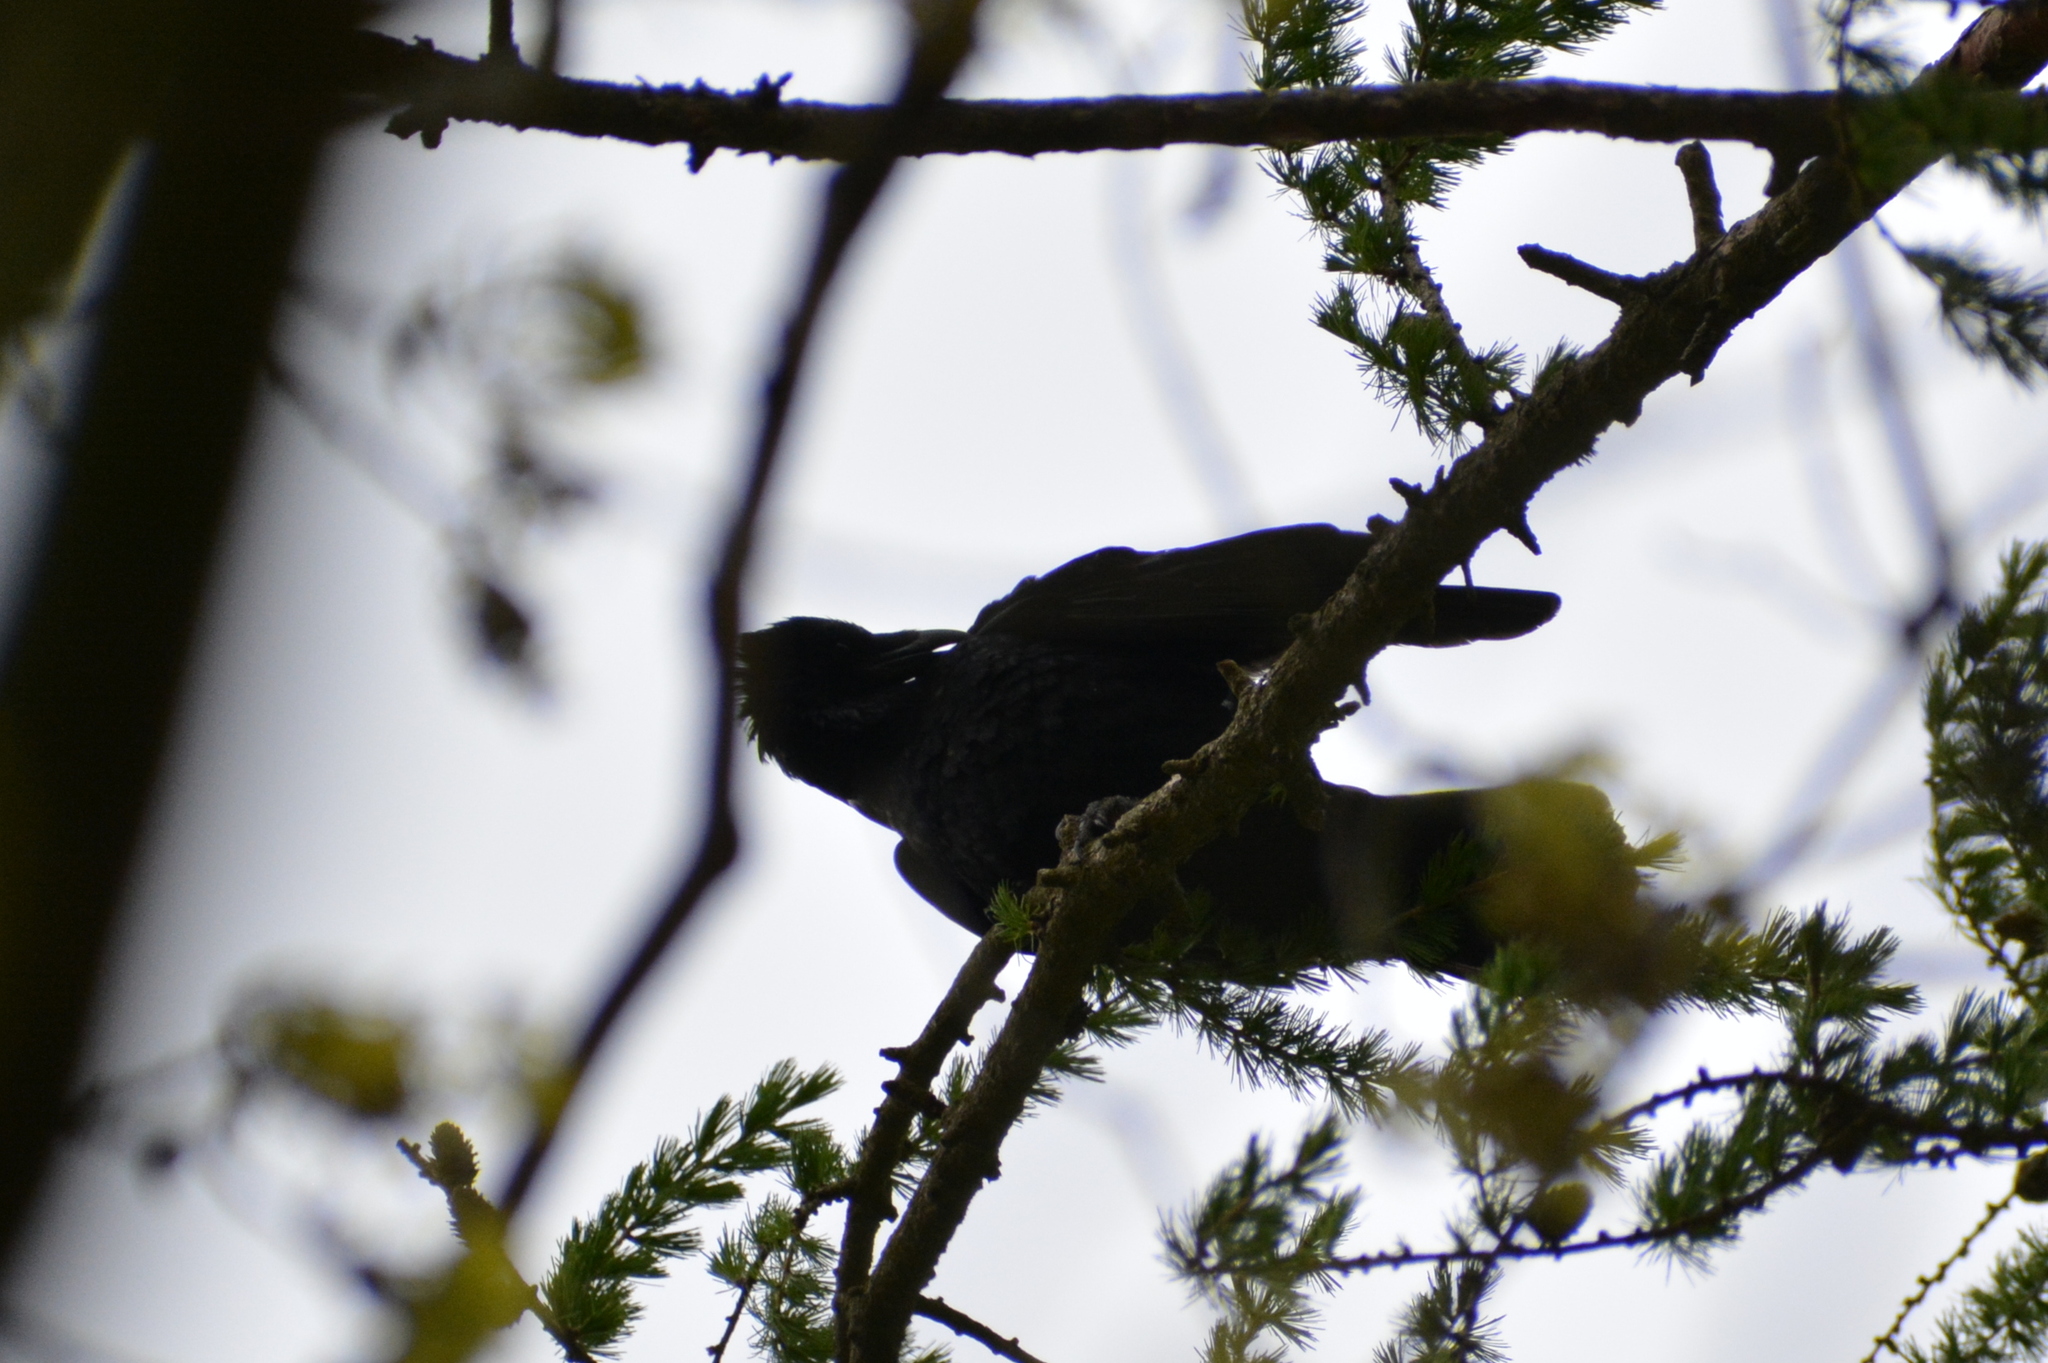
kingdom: Animalia
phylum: Chordata
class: Aves
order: Passeriformes
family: Corvidae
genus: Corvus
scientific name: Corvus corone
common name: Carrion crow
